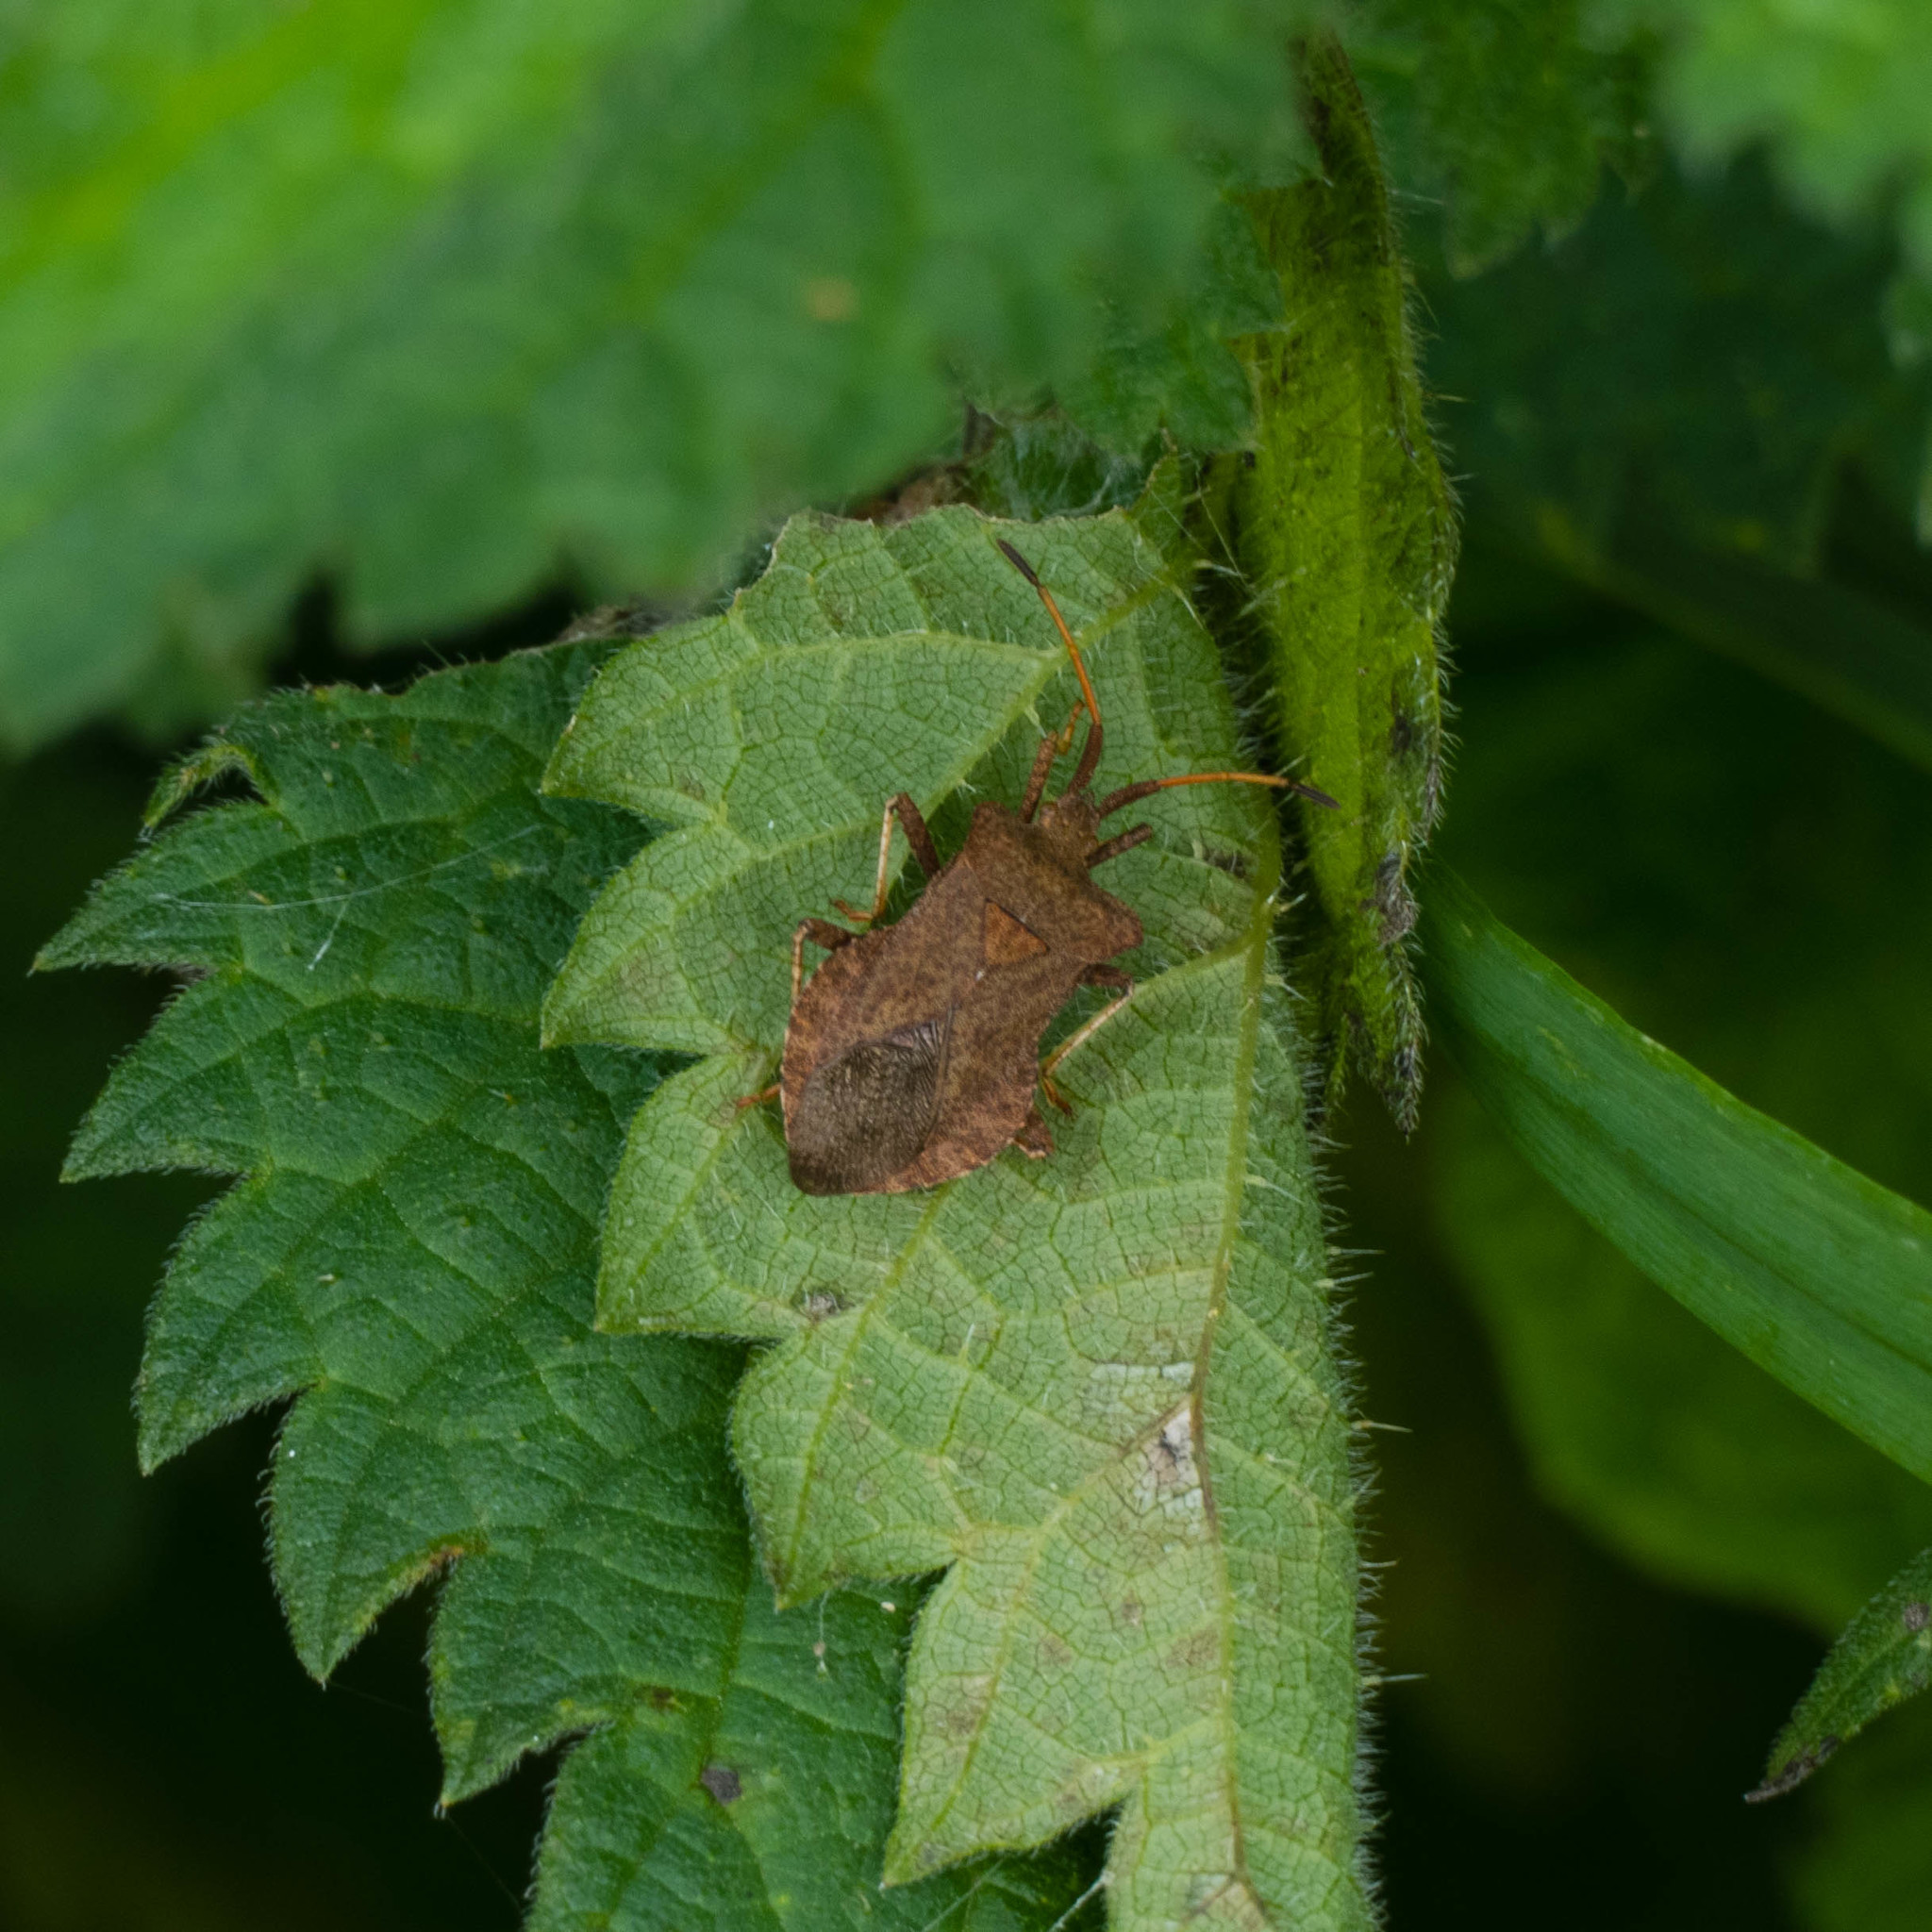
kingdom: Animalia
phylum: Arthropoda
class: Insecta
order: Hemiptera
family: Coreidae
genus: Coreus
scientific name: Coreus marginatus
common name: Dock bug
